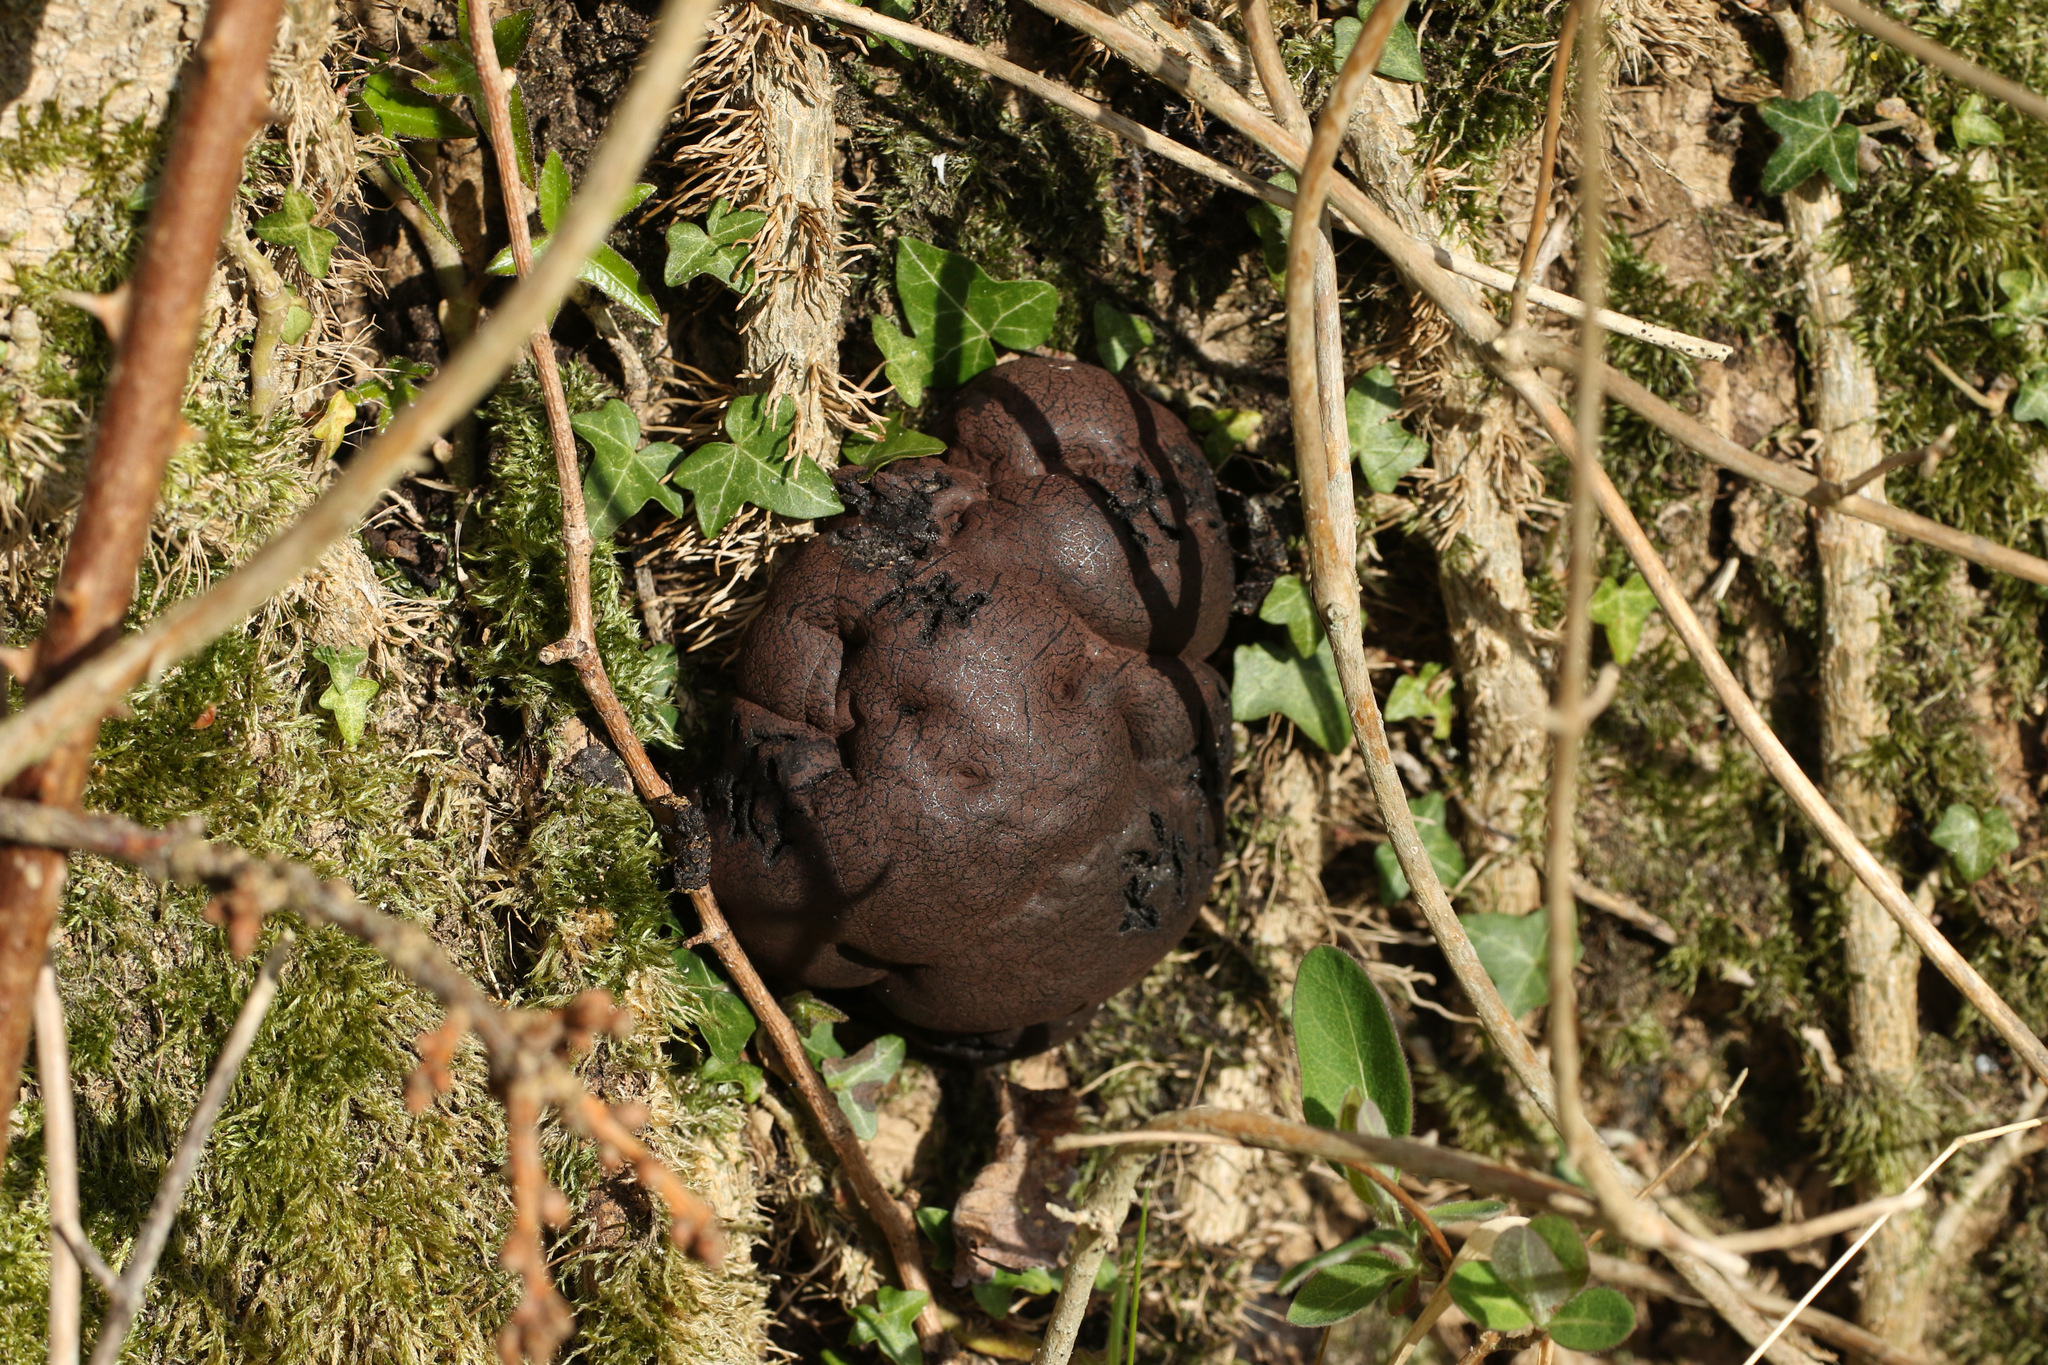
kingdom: Fungi
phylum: Ascomycota
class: Sordariomycetes
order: Xylariales
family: Hypoxylaceae
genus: Daldinia
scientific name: Daldinia concentrica
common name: Cramp balls
